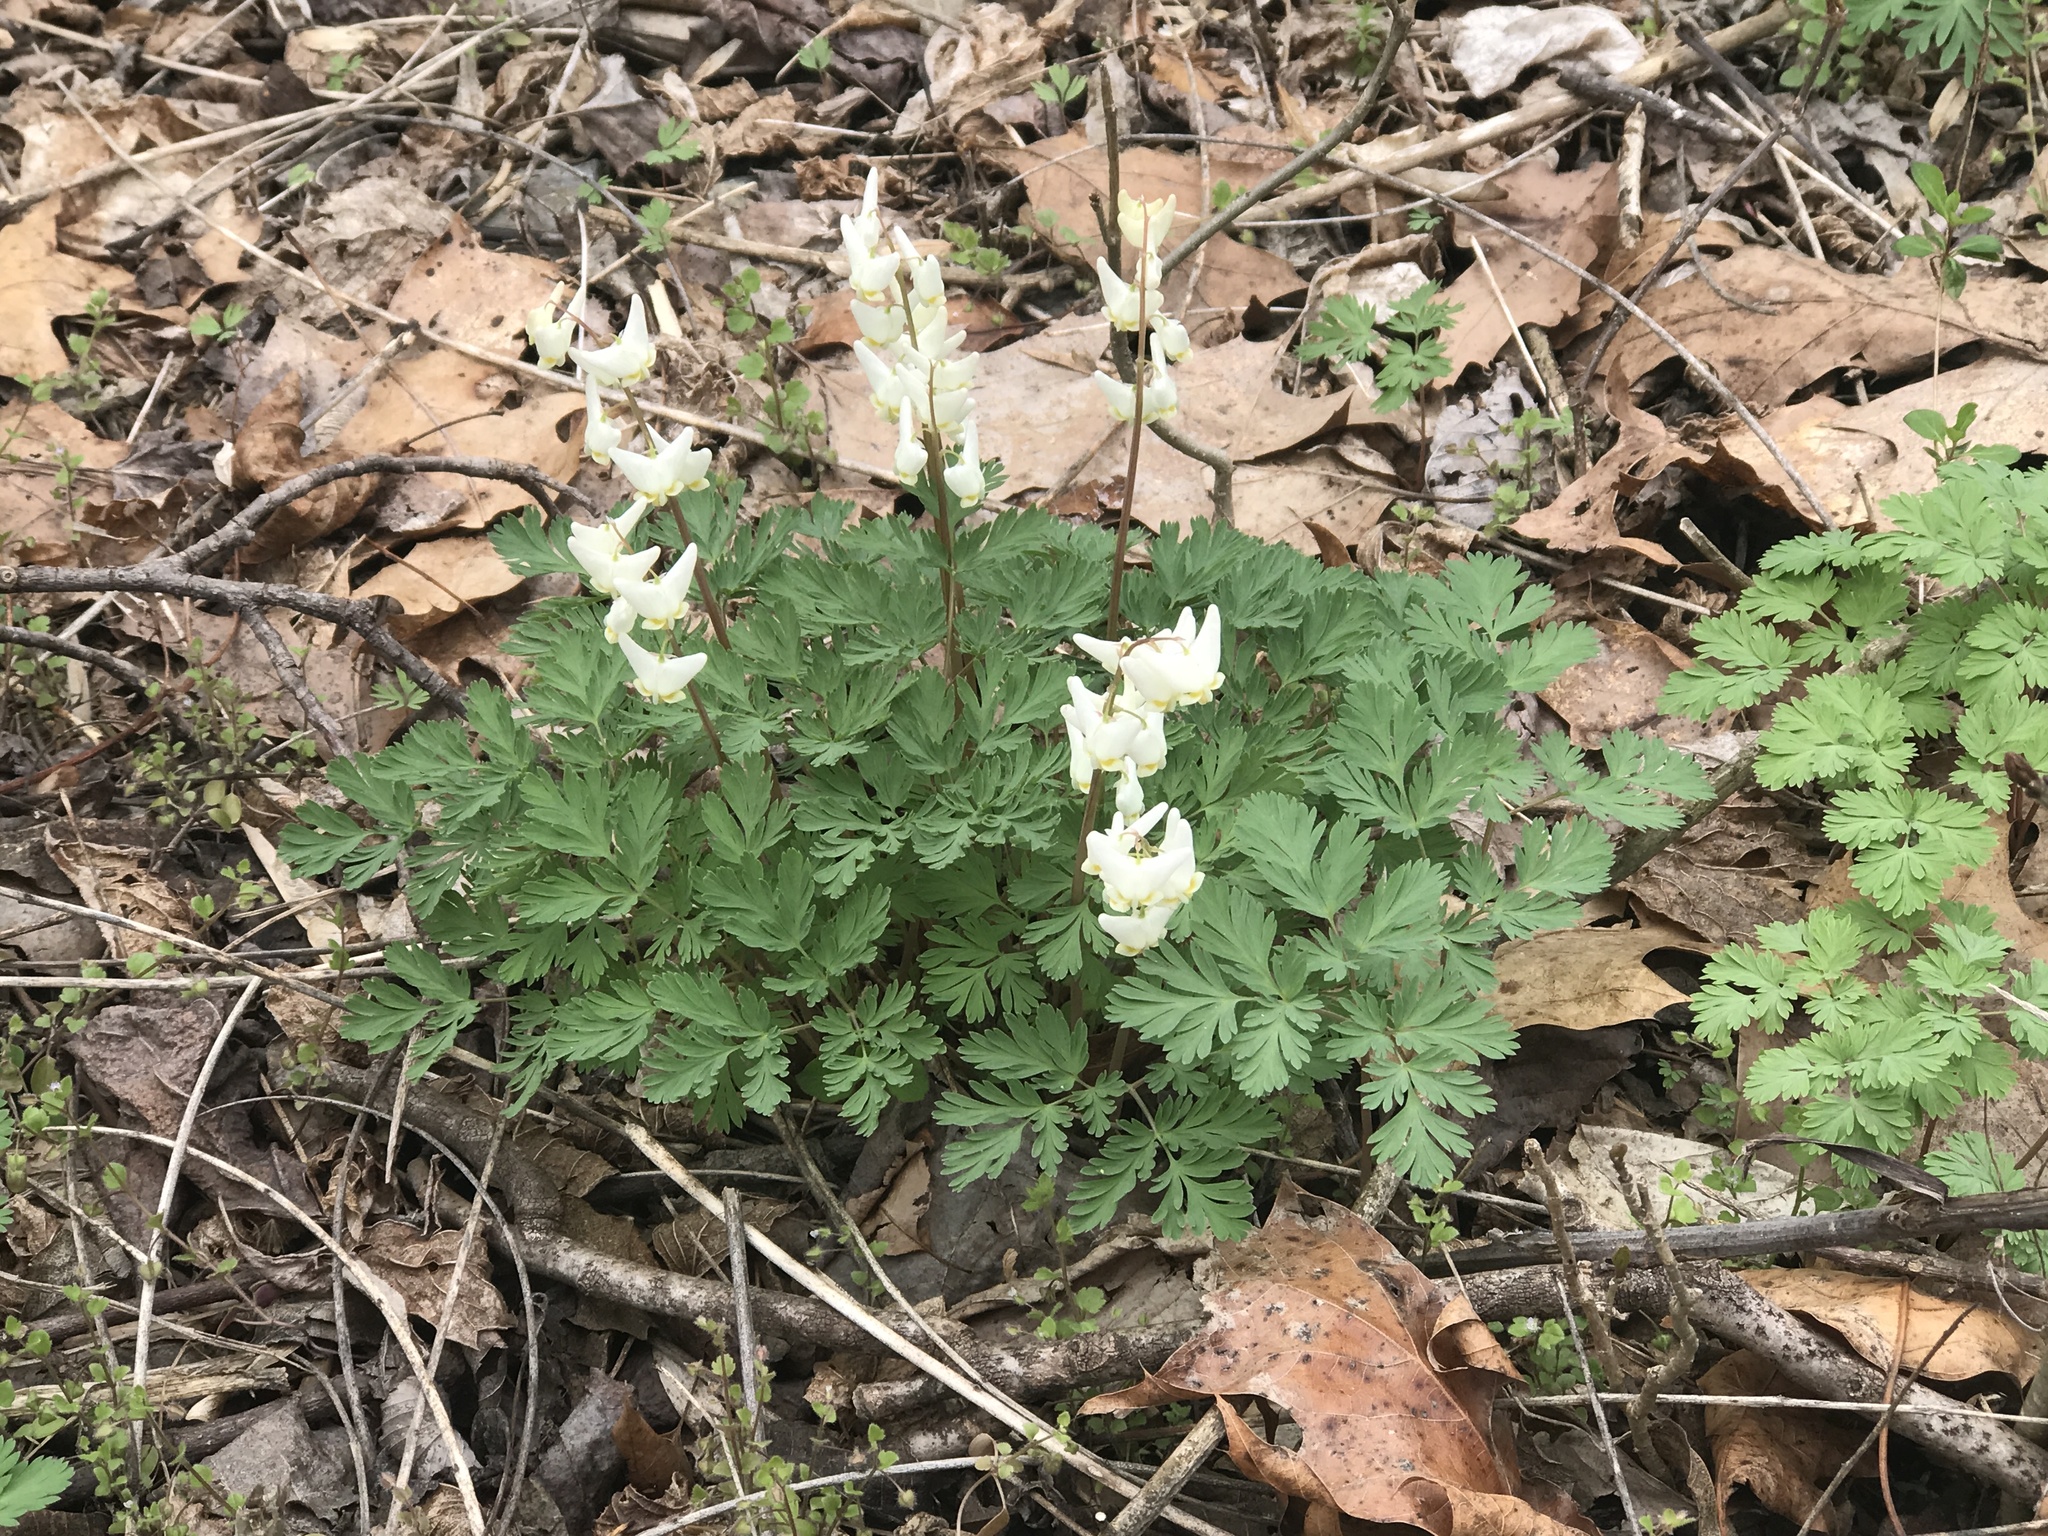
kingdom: Plantae
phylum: Tracheophyta
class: Magnoliopsida
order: Ranunculales
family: Papaveraceae
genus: Dicentra
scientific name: Dicentra cucullaria
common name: Dutchman's breeches
